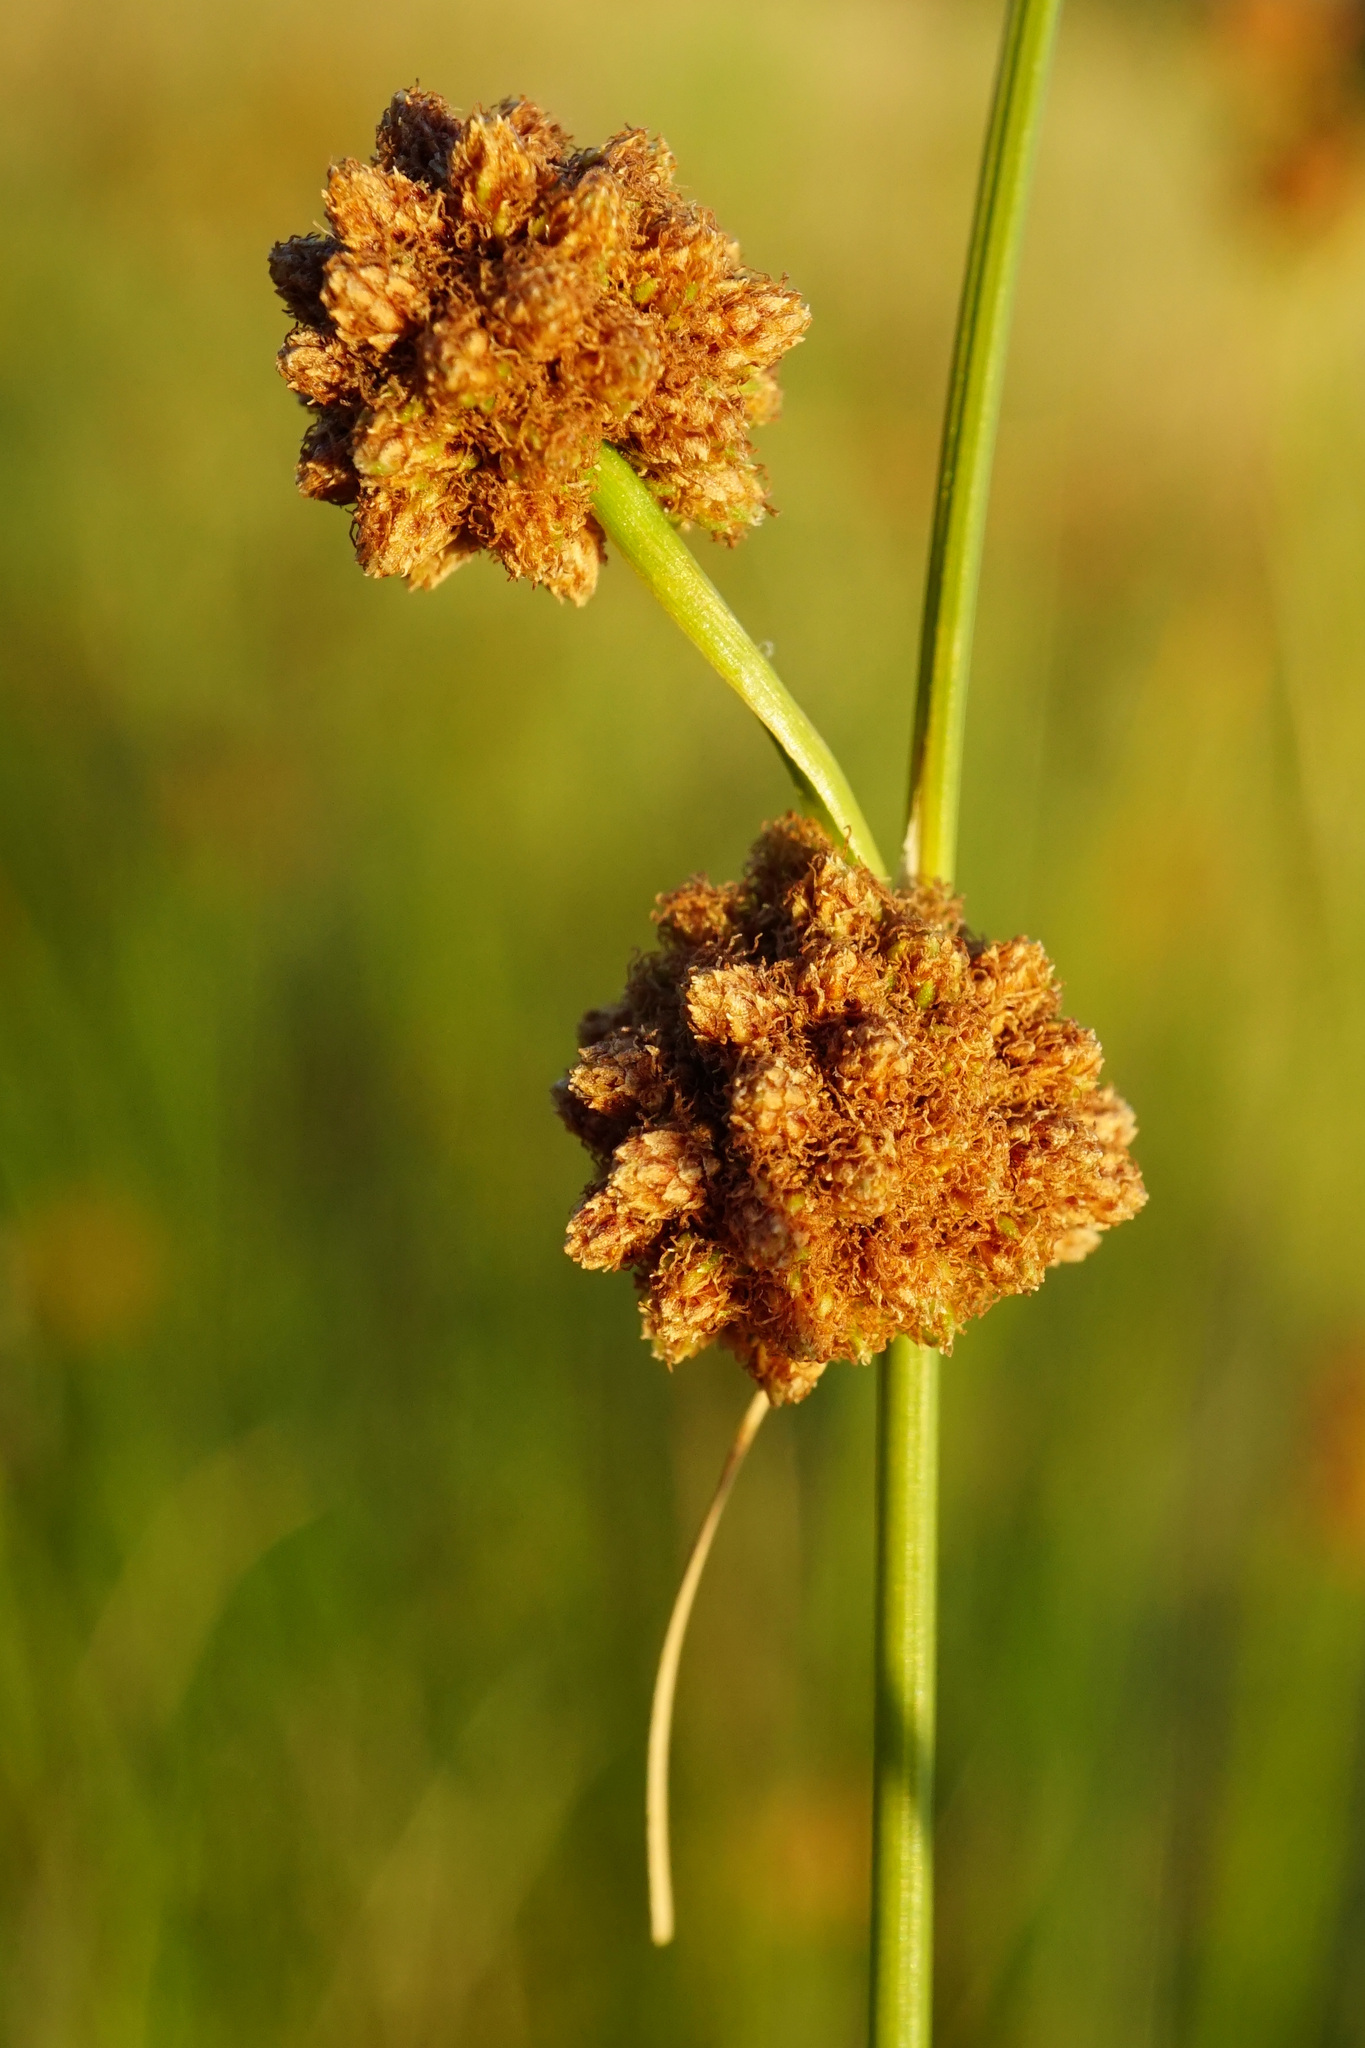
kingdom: Plantae
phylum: Tracheophyta
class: Liliopsida
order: Poales
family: Cyperaceae
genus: Scirpoides
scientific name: Scirpoides holoschoenus
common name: Round-headed club-rush
